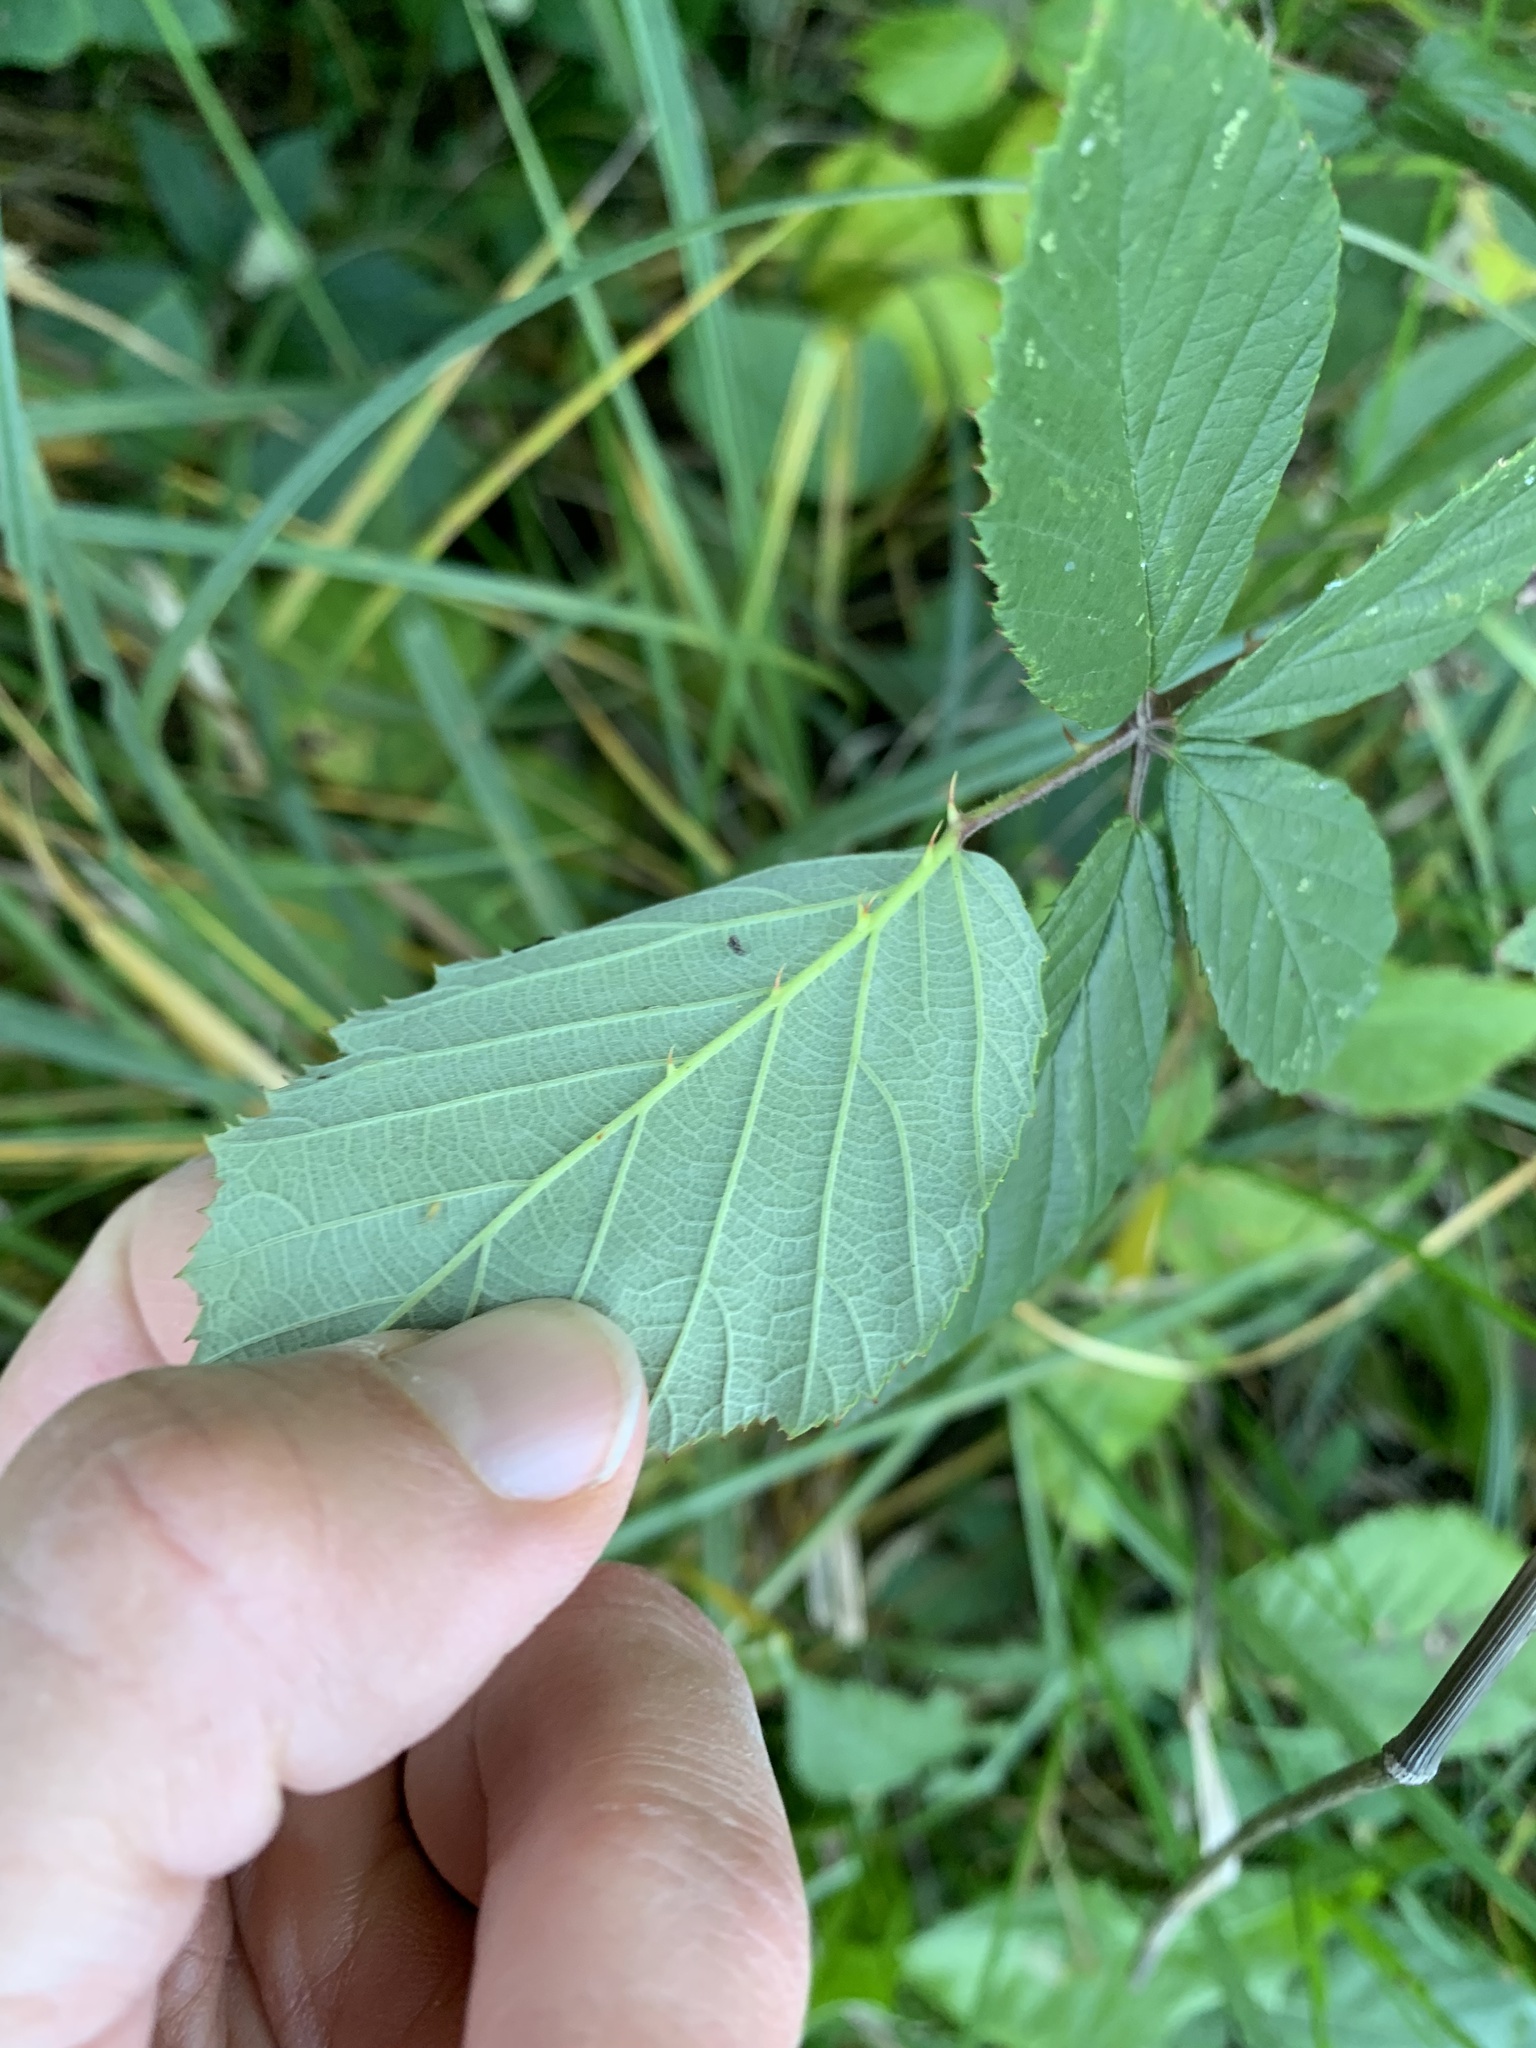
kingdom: Plantae
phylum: Tracheophyta
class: Magnoliopsida
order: Rosales
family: Rosaceae
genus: Rubus
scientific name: Rubus armeniacus
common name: Himalayan blackberry
